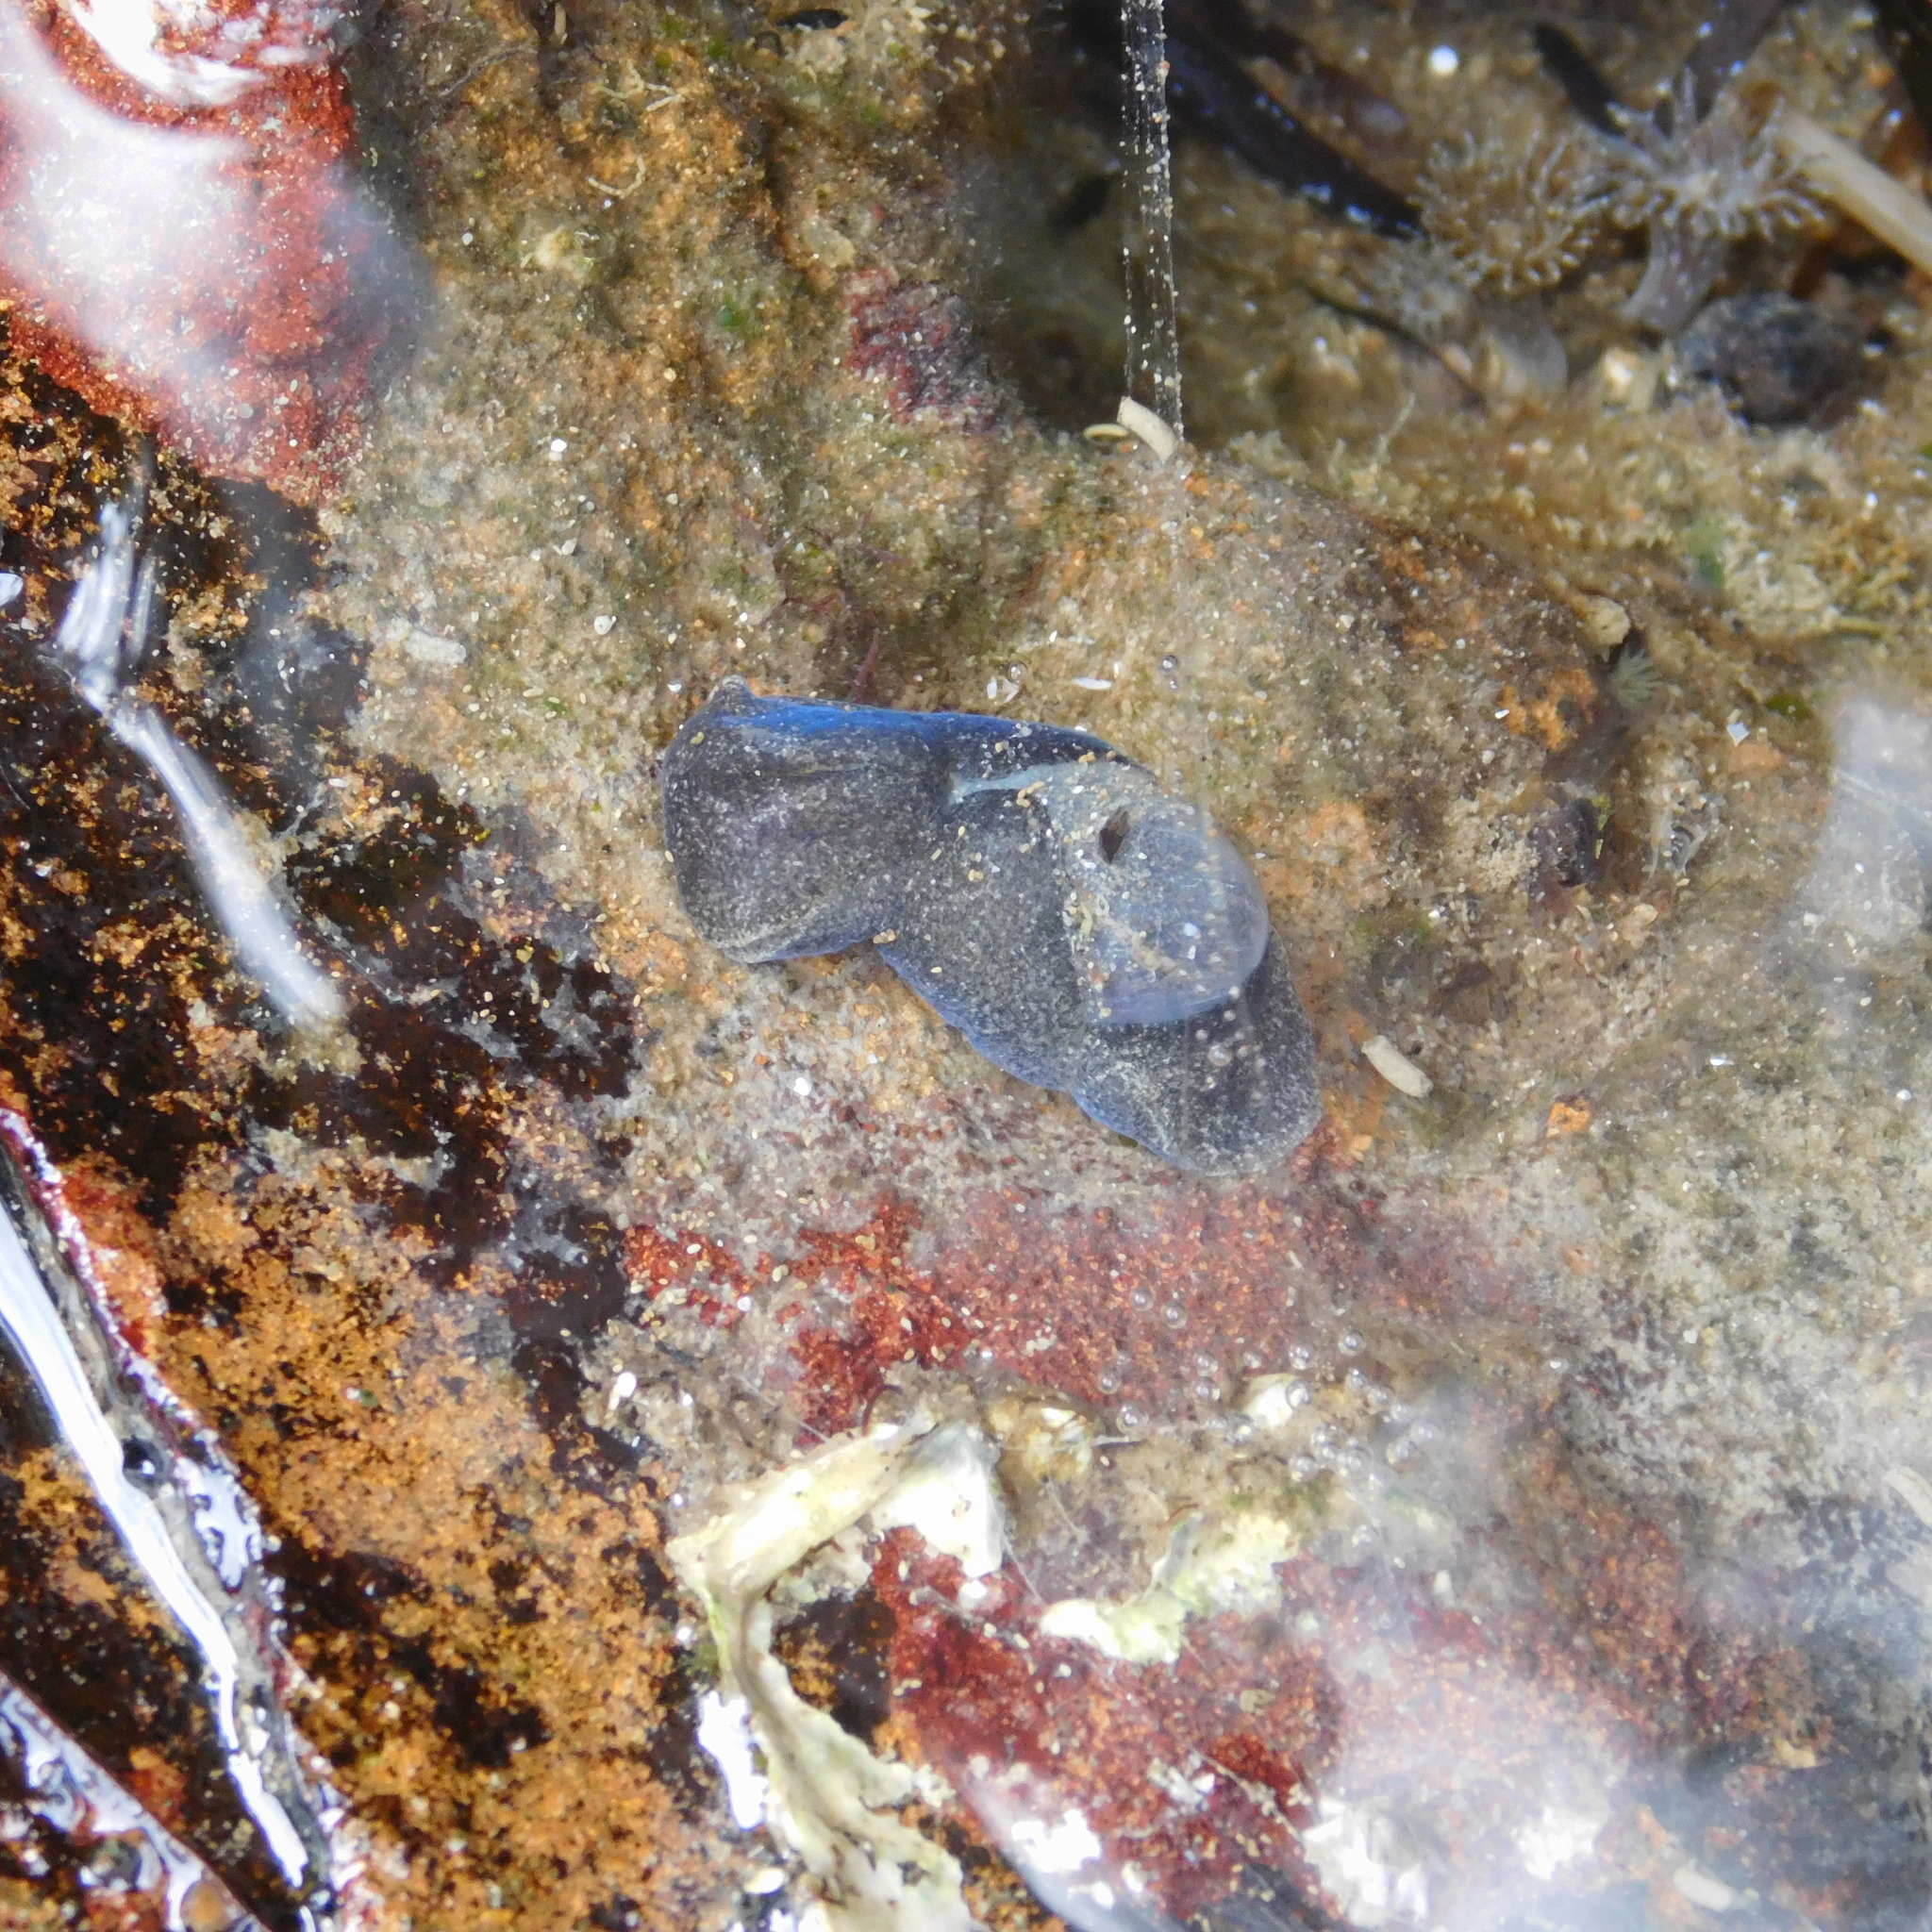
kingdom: Animalia
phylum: Mollusca
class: Gastropoda
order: Cephalaspidea
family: Haminoeidae
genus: Papawera
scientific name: Papawera zelandiae
